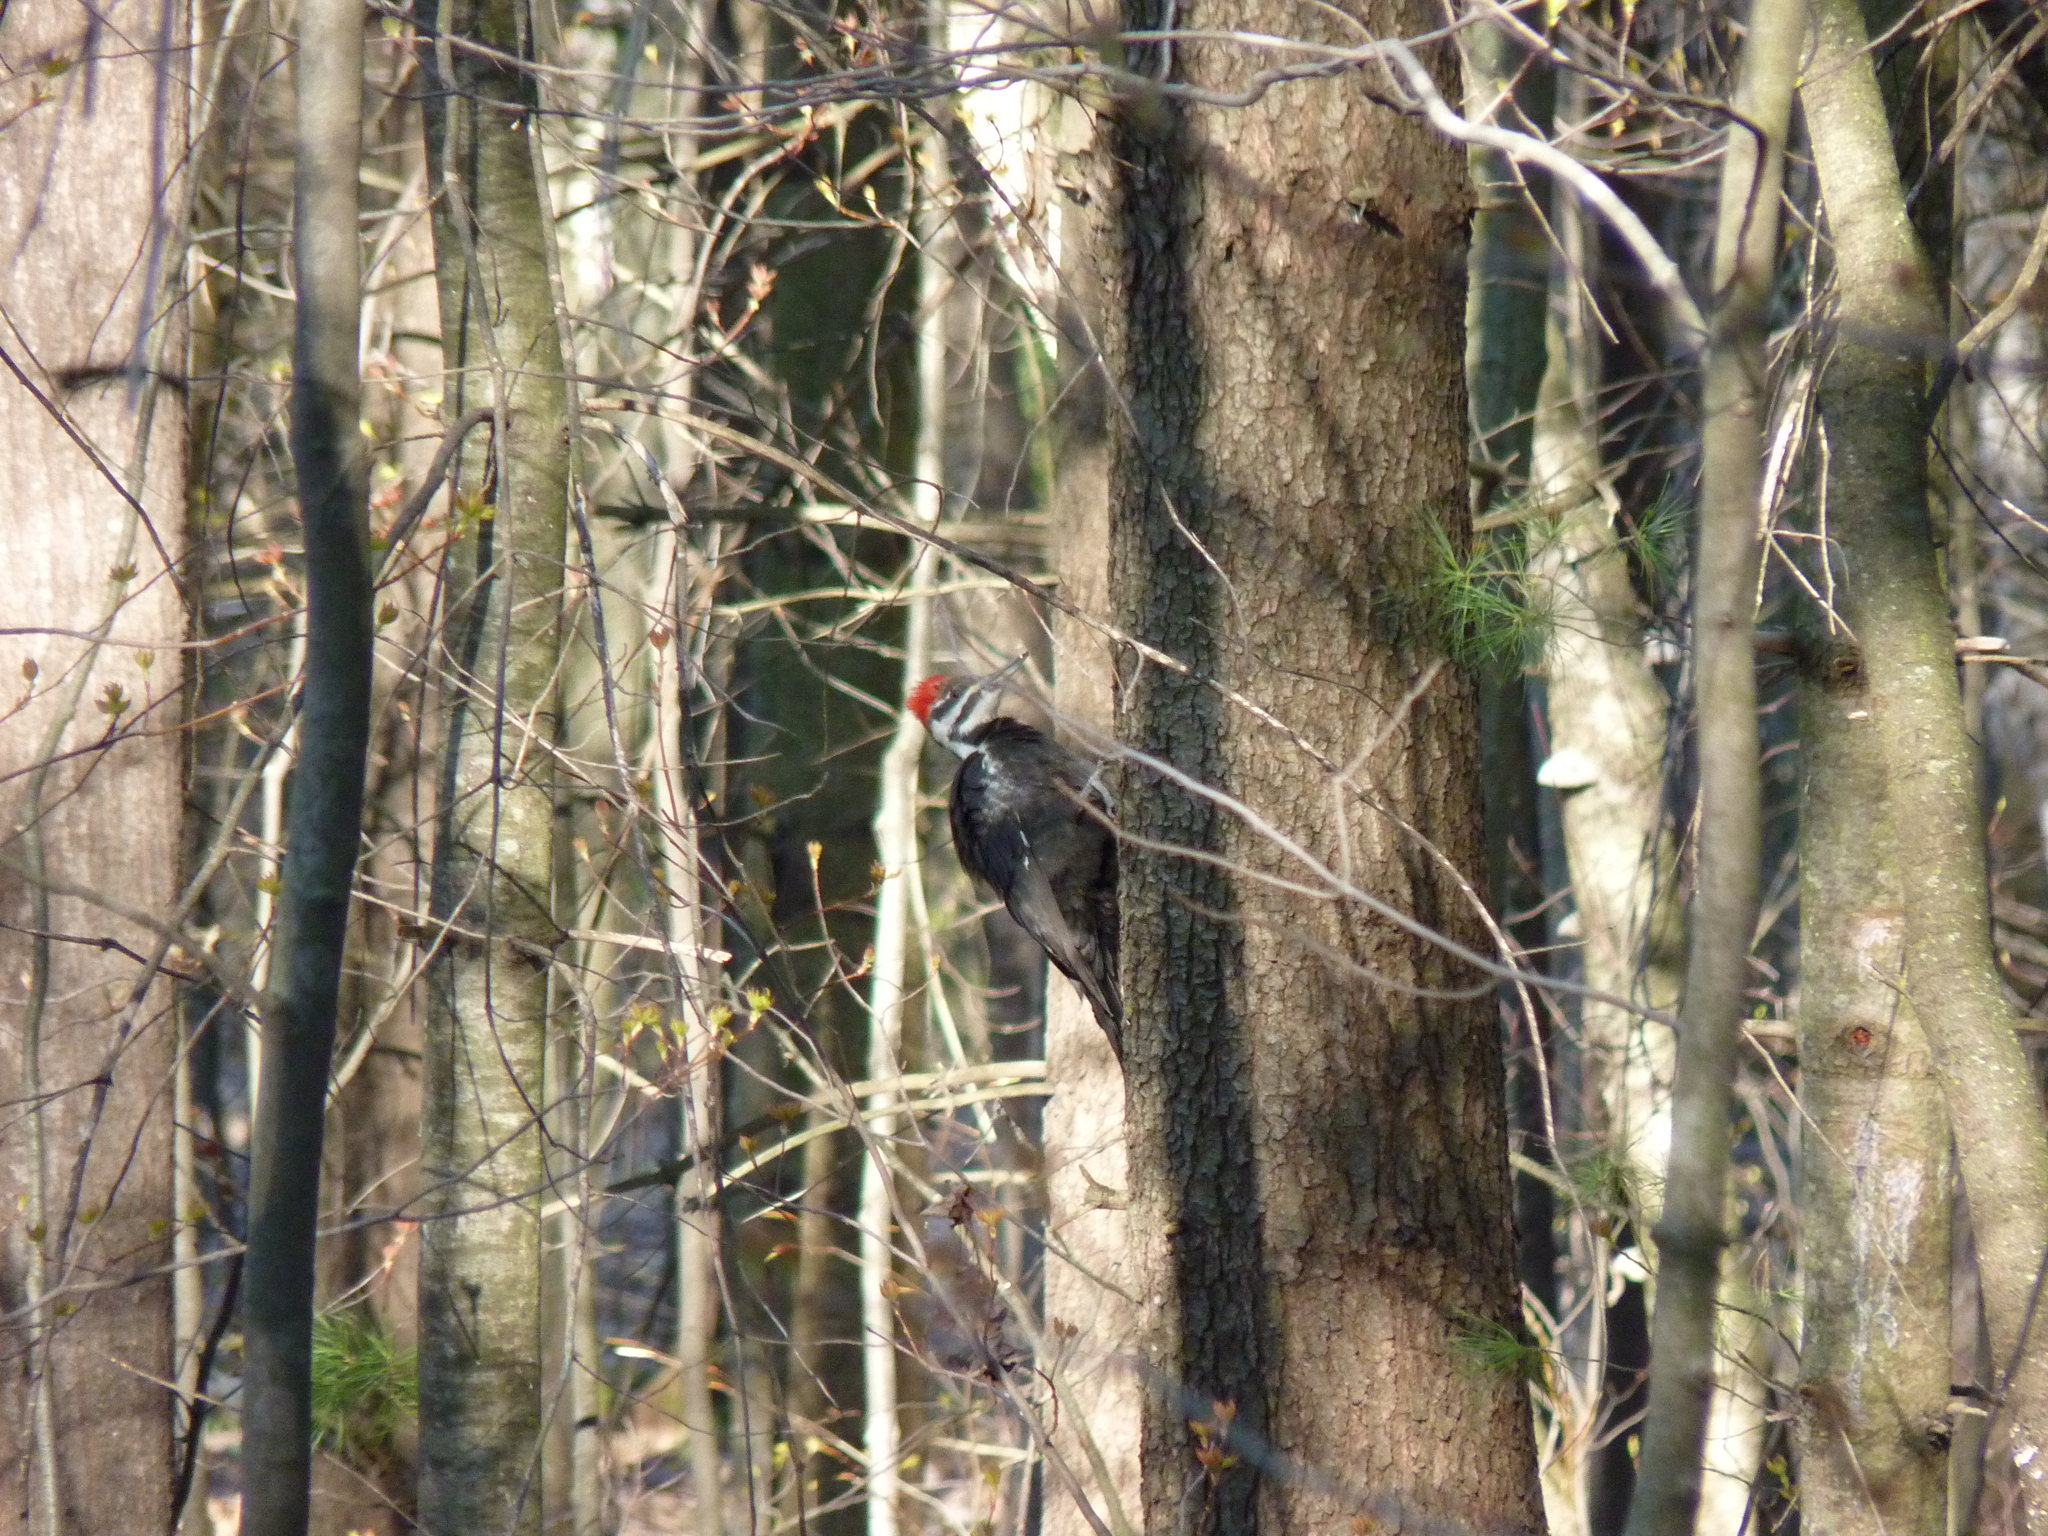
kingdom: Animalia
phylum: Chordata
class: Aves
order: Piciformes
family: Picidae
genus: Dryocopus
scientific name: Dryocopus pileatus
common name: Pileated woodpecker
